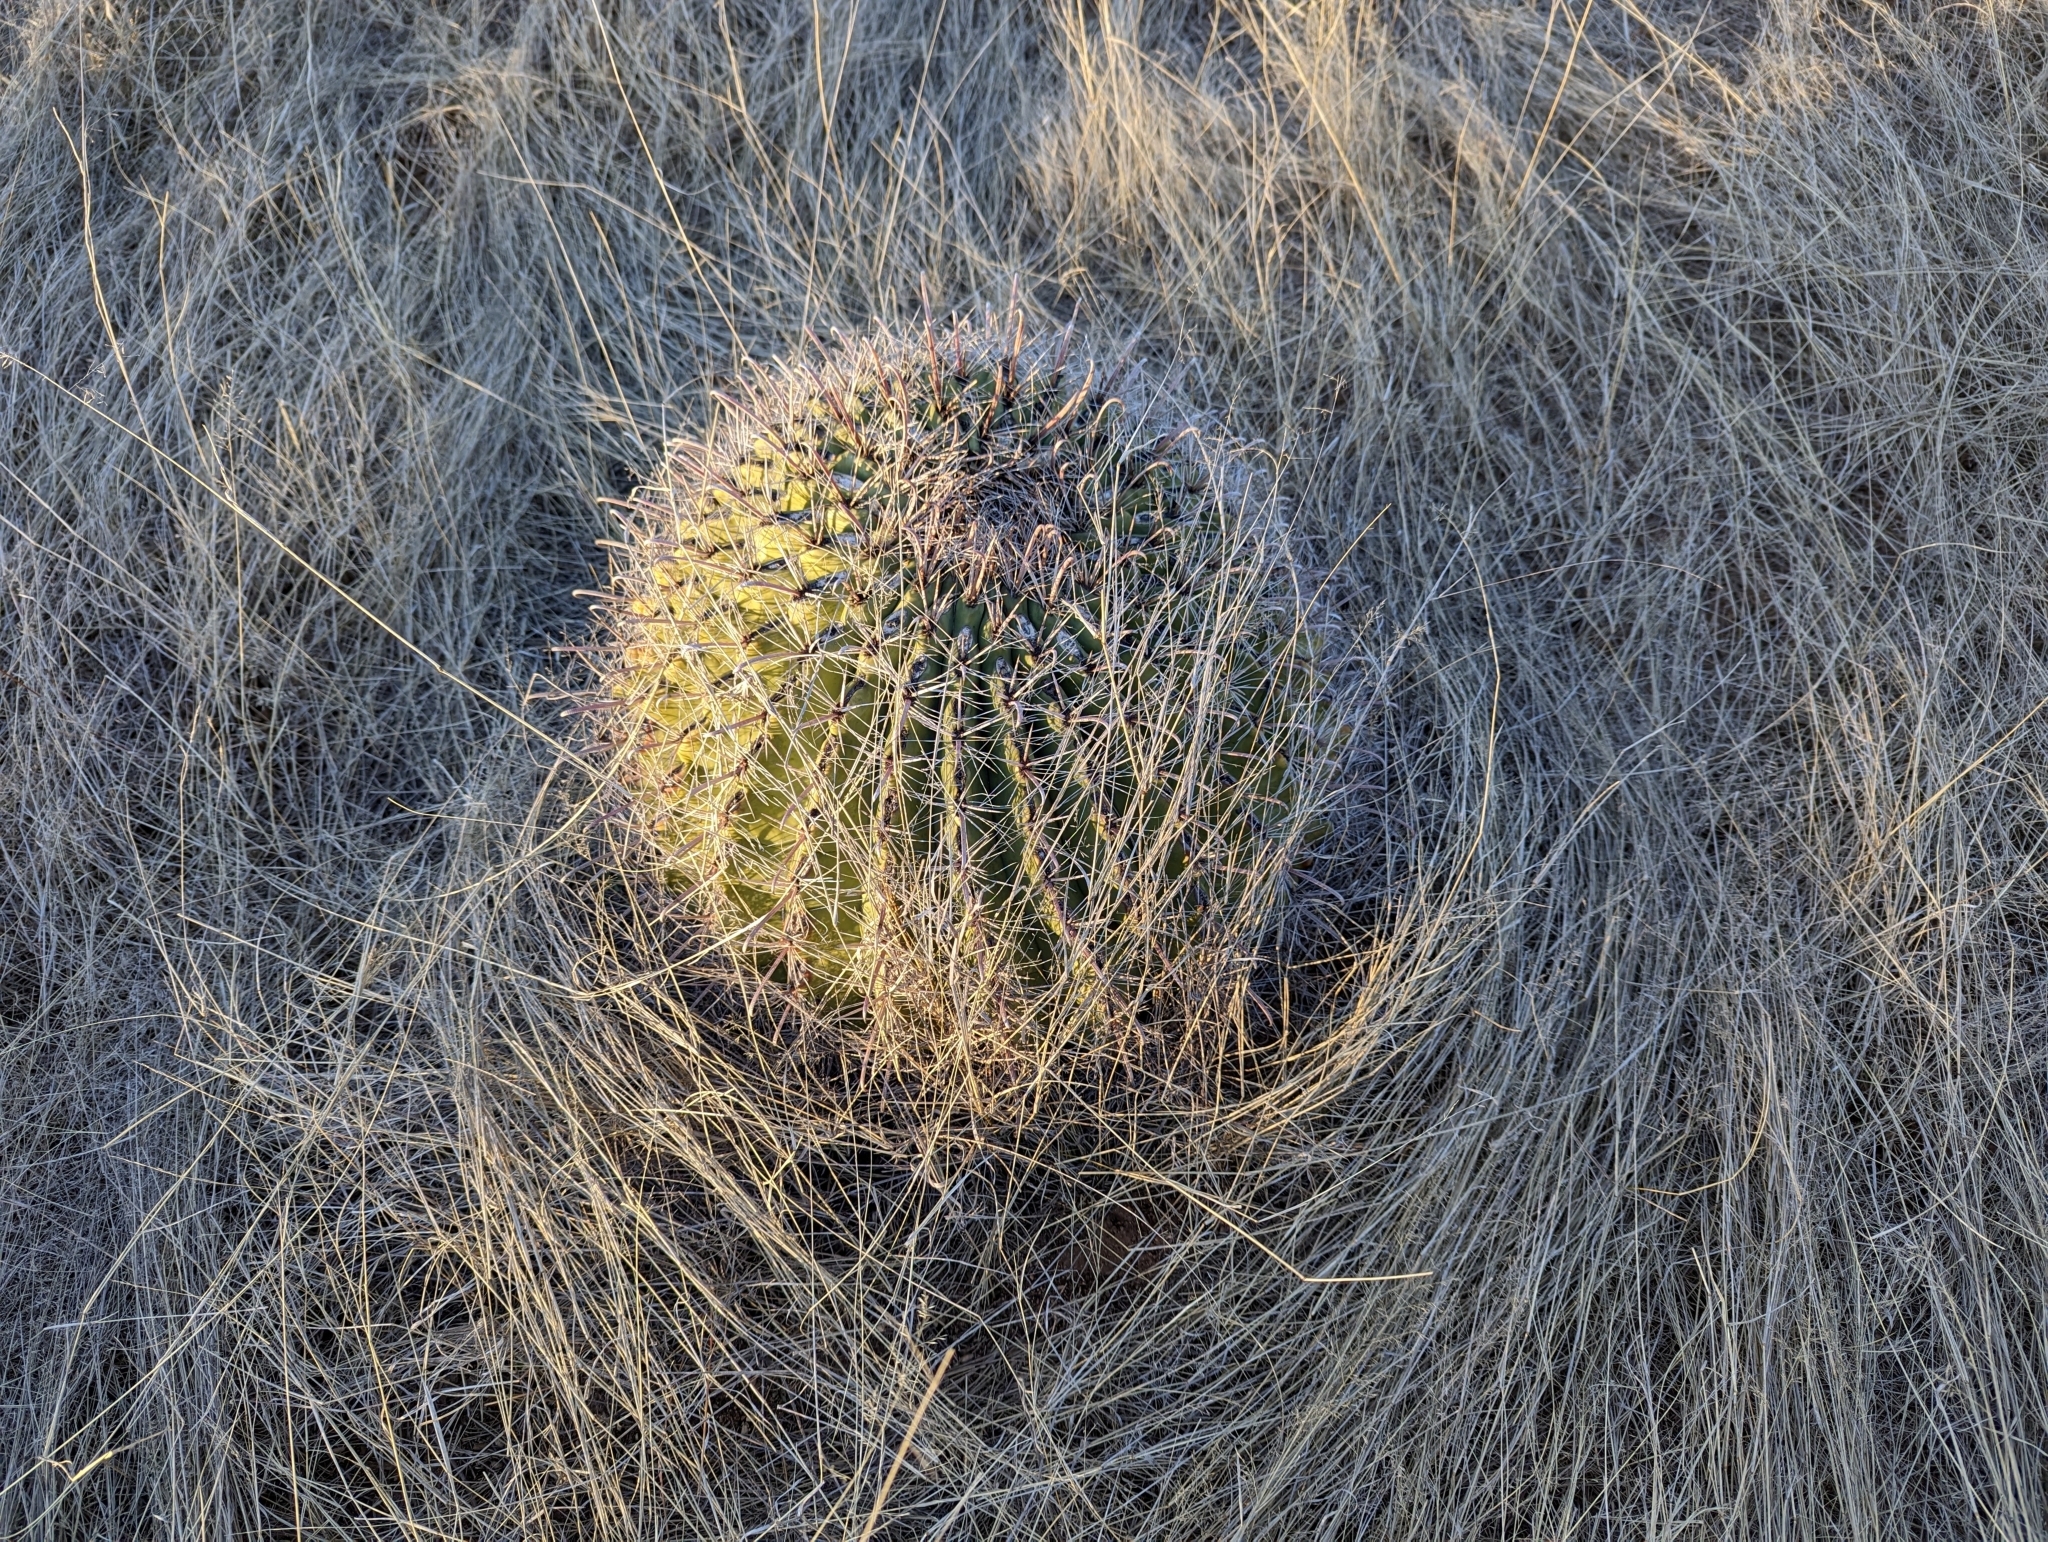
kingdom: Plantae
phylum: Tracheophyta
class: Magnoliopsida
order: Caryophyllales
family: Cactaceae
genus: Ferocactus
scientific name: Ferocactus wislizeni
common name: Candy barrel cactus
